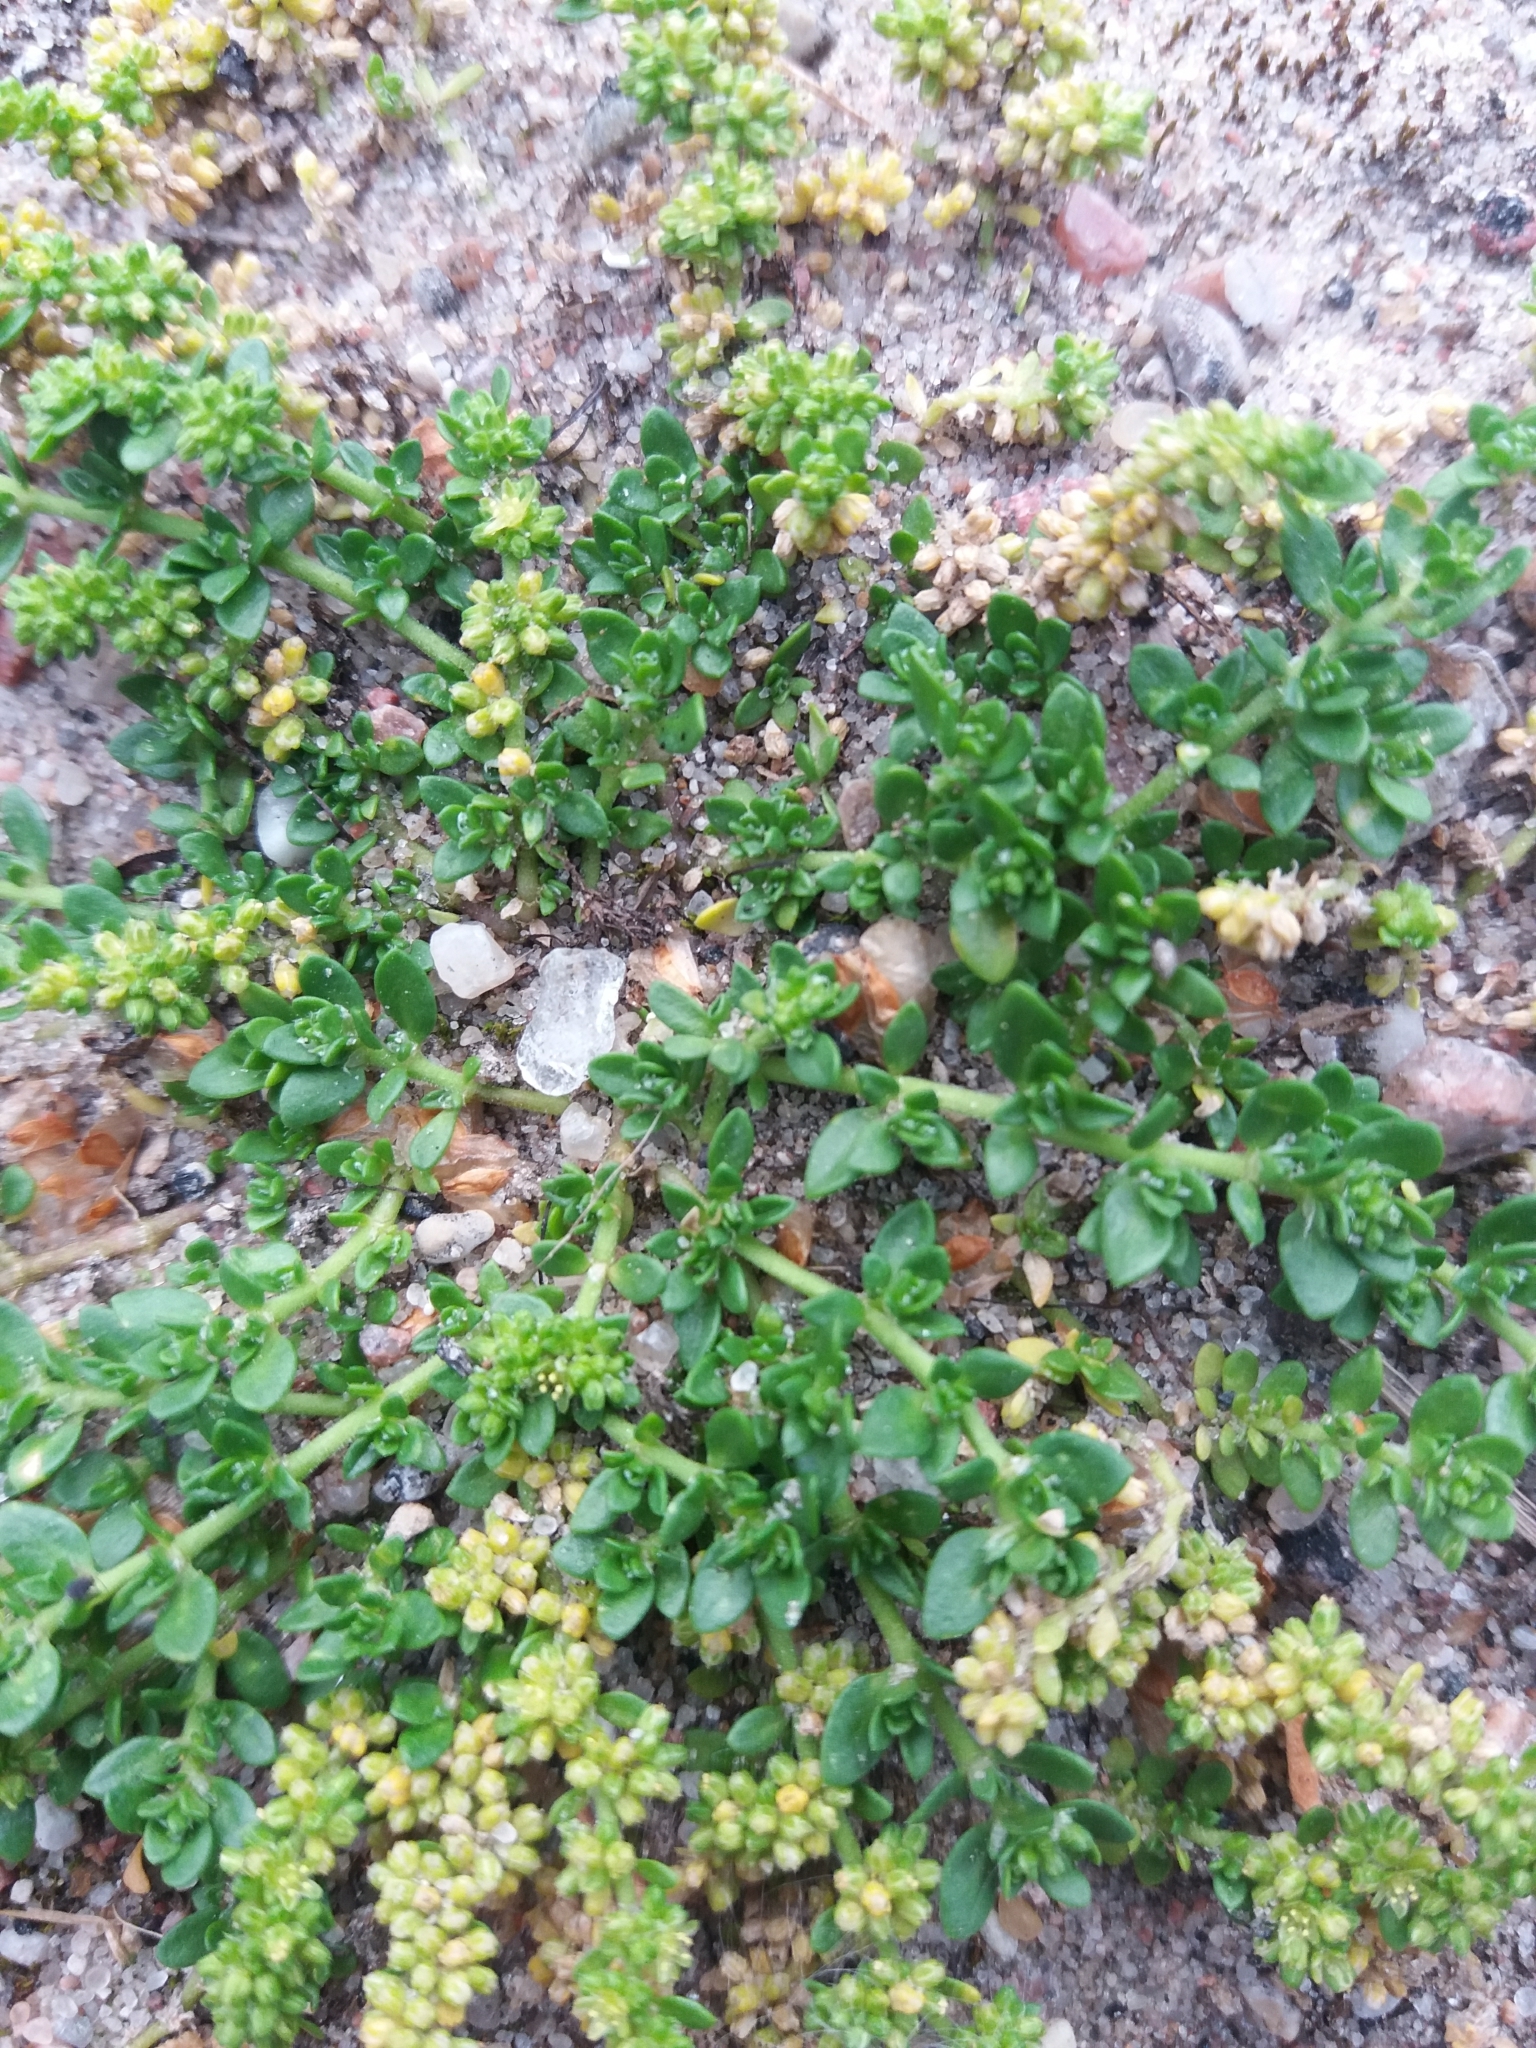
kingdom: Plantae
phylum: Tracheophyta
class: Magnoliopsida
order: Caryophyllales
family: Caryophyllaceae
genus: Herniaria
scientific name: Herniaria glabra
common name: Smooth rupturewort
